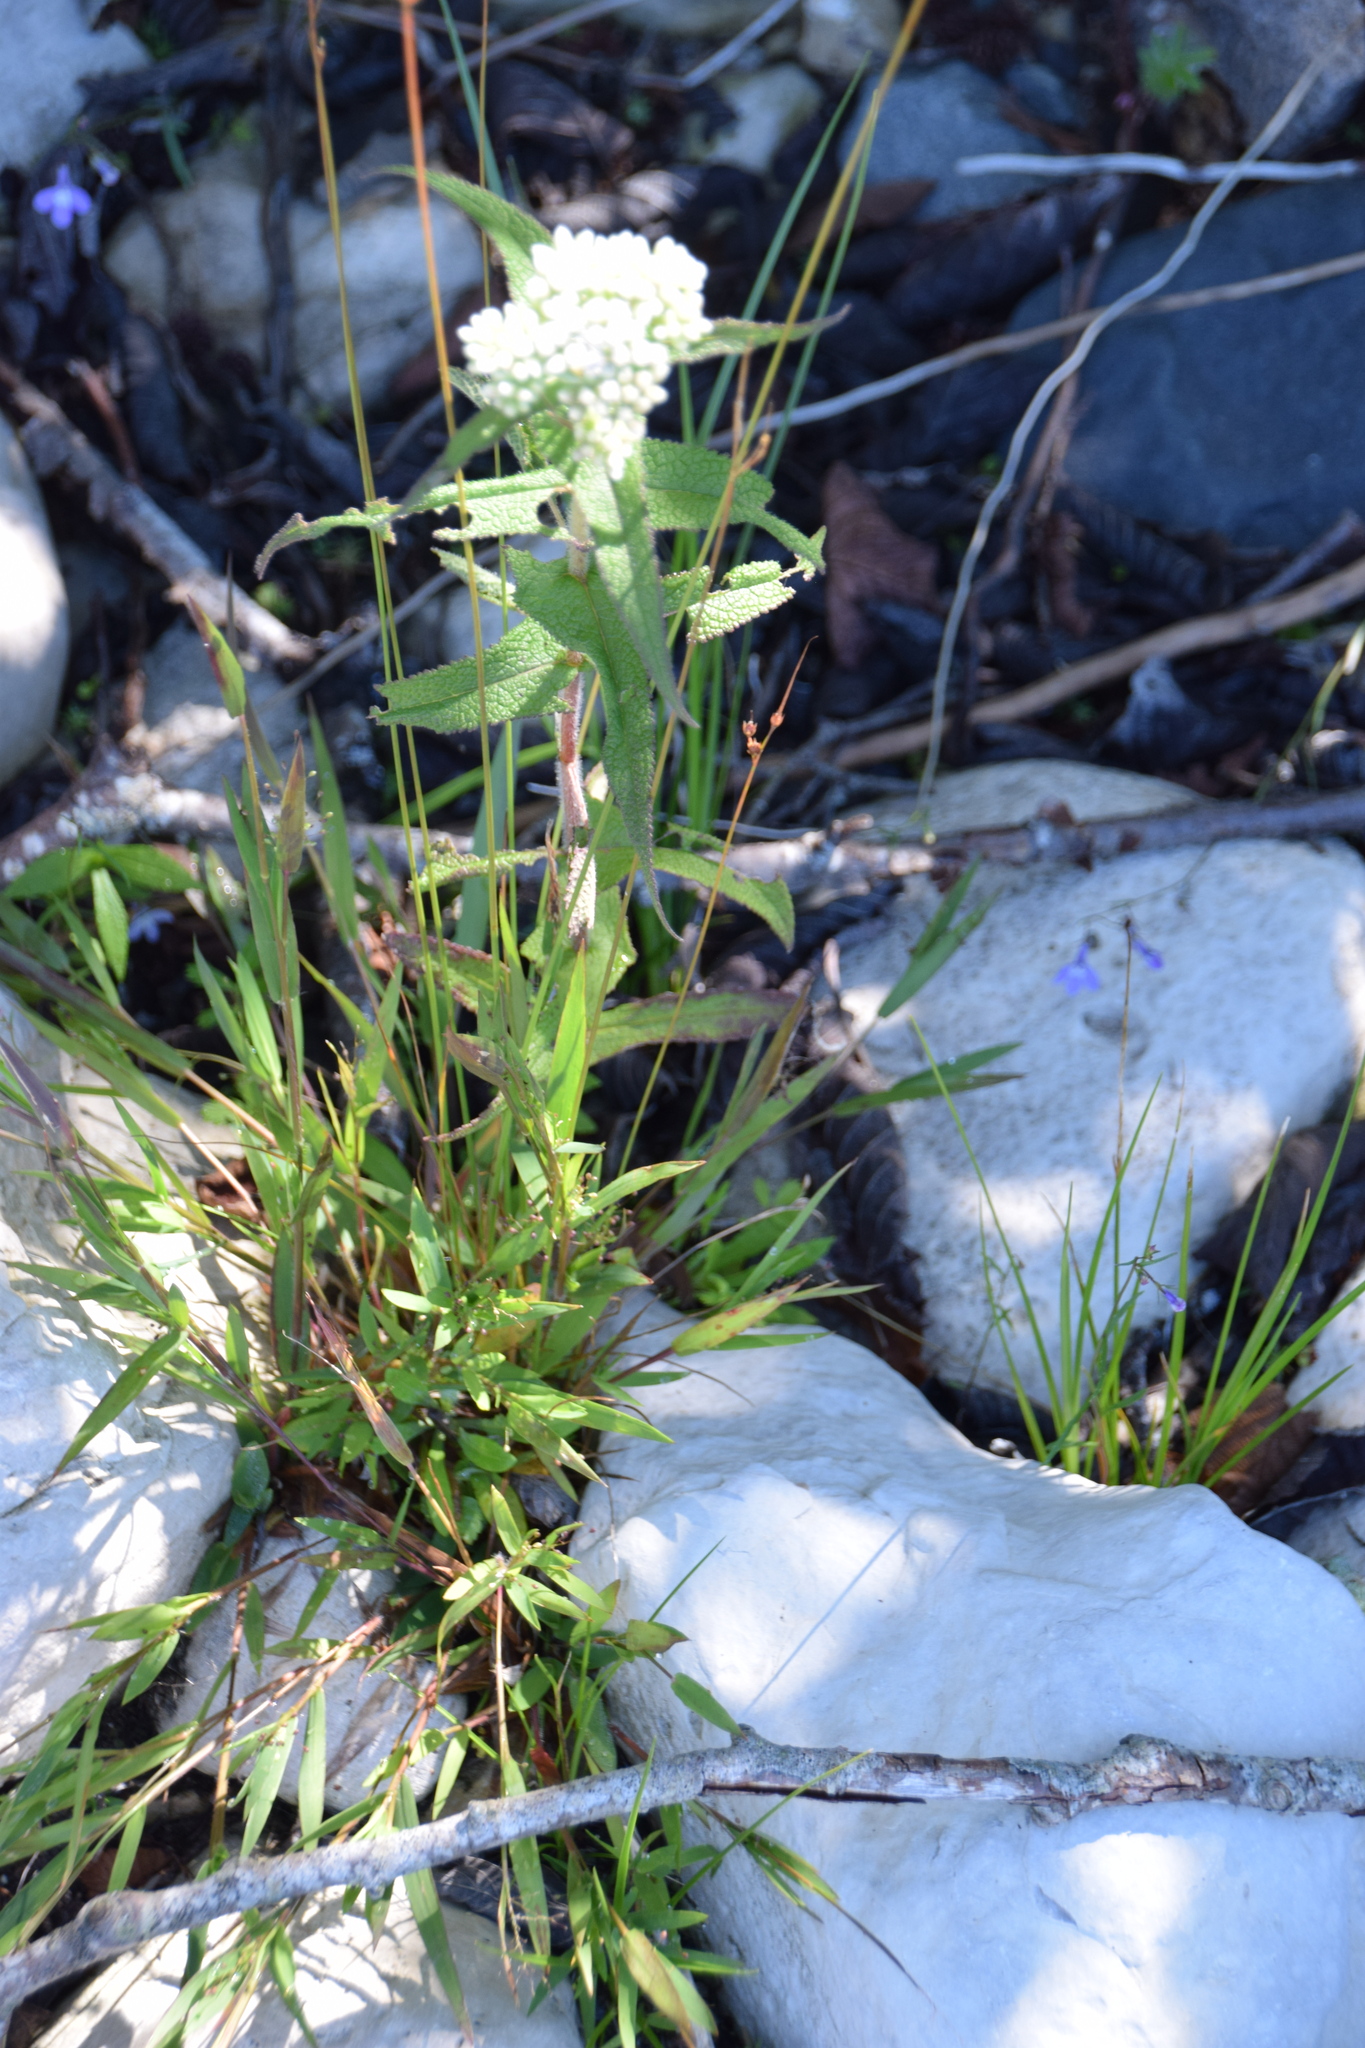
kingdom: Plantae
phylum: Tracheophyta
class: Magnoliopsida
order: Asterales
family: Asteraceae
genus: Eupatorium
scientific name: Eupatorium perfoliatum
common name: Boneset
